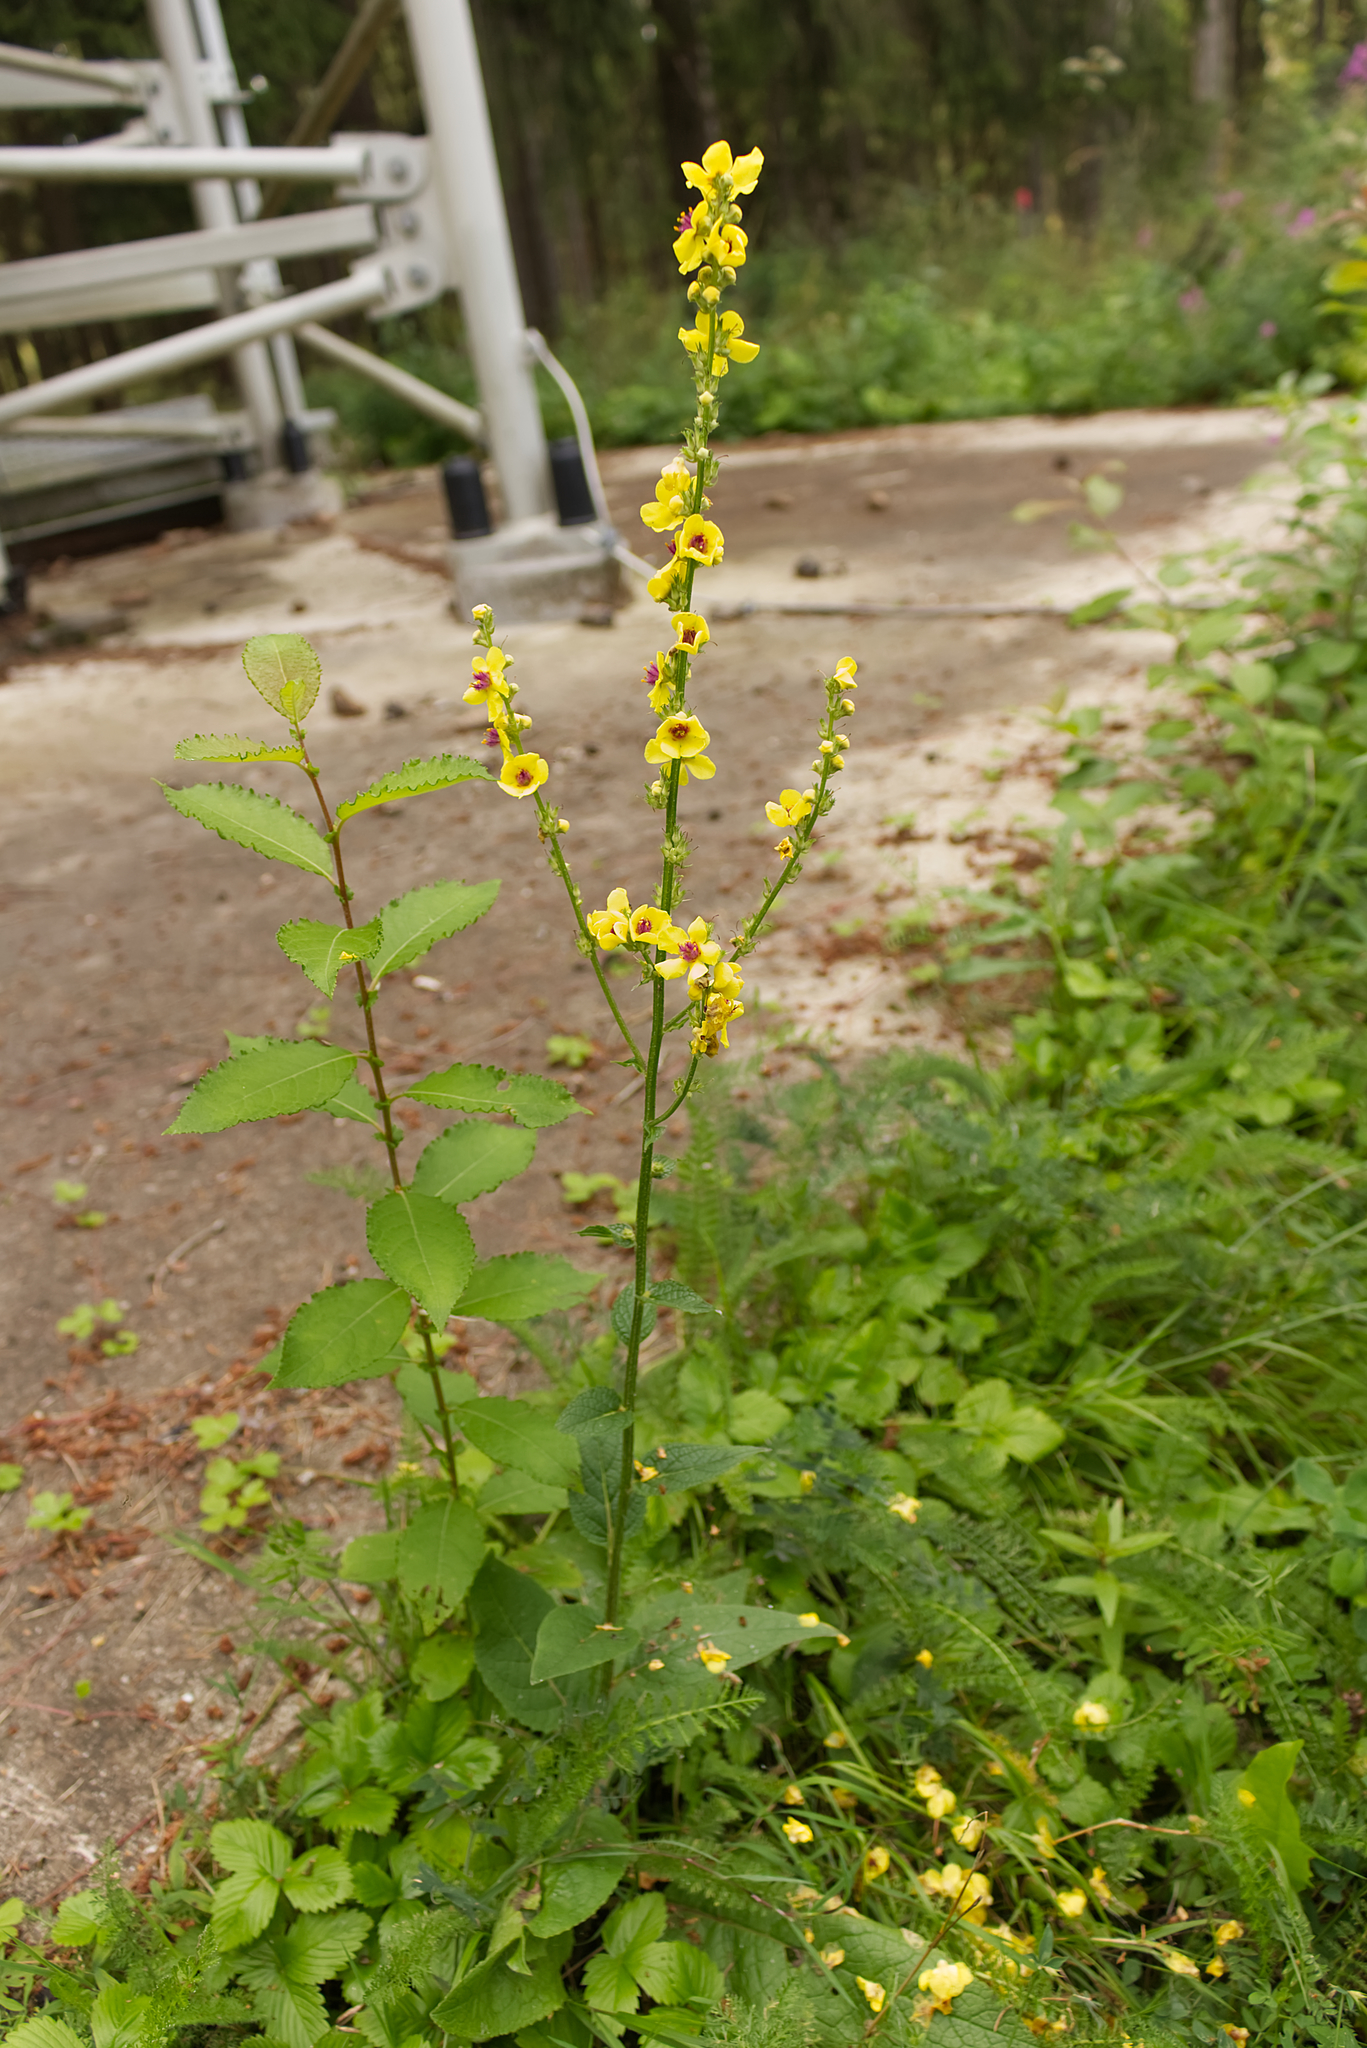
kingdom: Plantae
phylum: Tracheophyta
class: Magnoliopsida
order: Lamiales
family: Scrophulariaceae
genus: Verbascum
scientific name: Verbascum chaixii
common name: Nettle-leaved mullein
